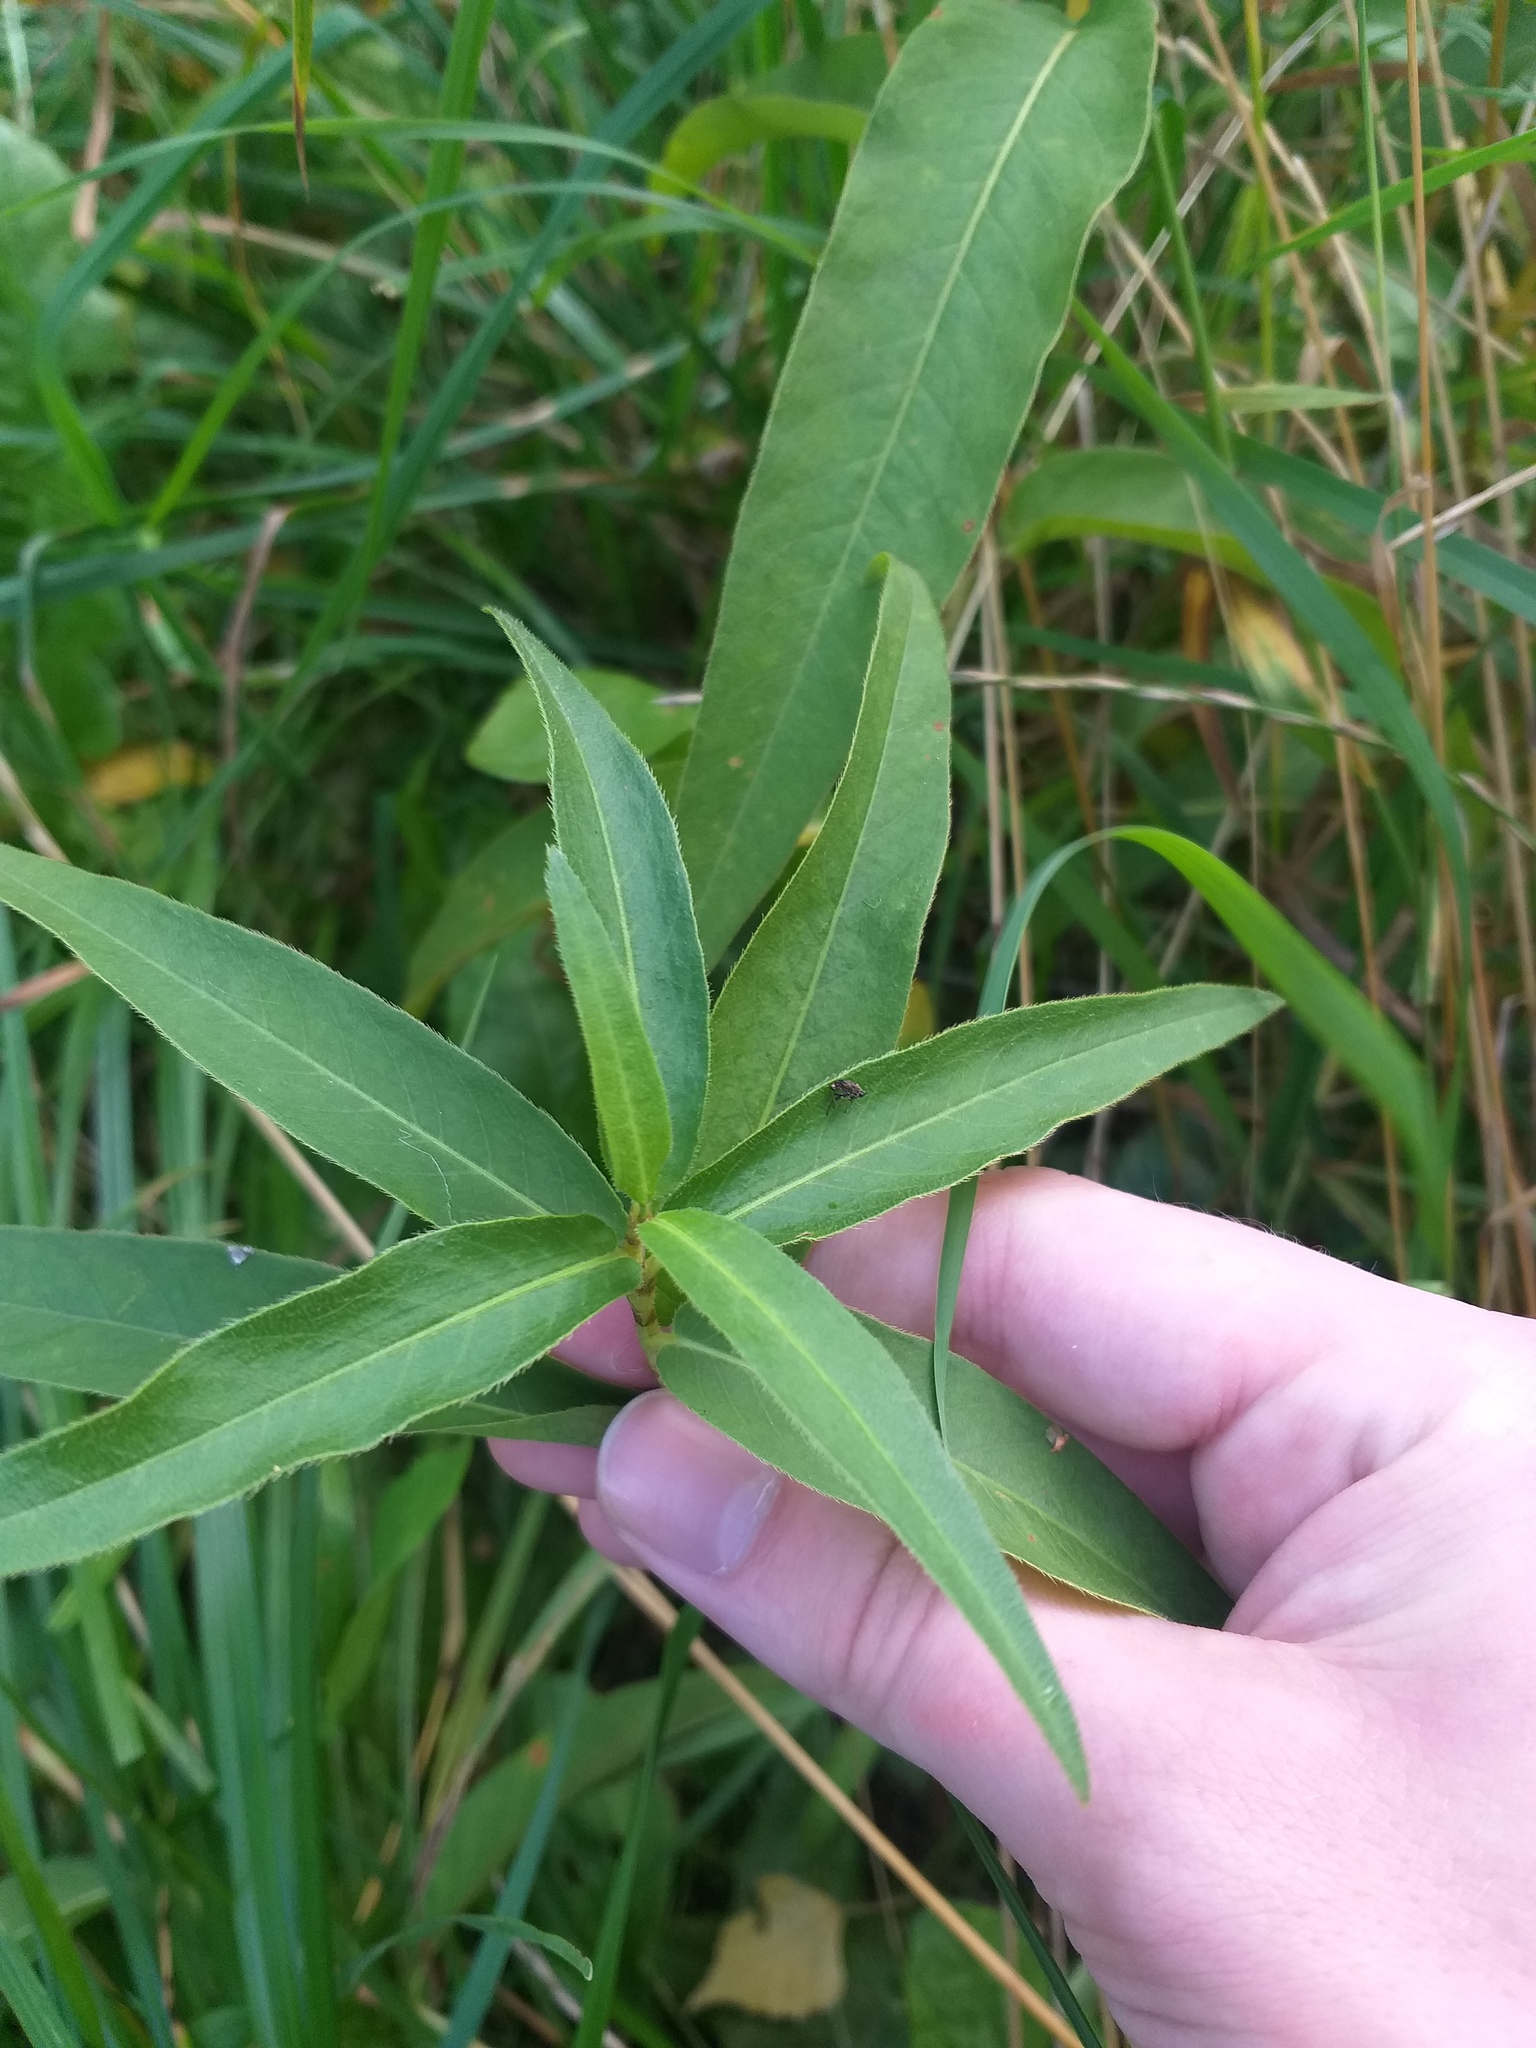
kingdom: Plantae
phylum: Tracheophyta
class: Magnoliopsida
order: Caryophyllales
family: Polygonaceae
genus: Persicaria
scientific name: Persicaria amphibia
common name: Amphibious bistort
